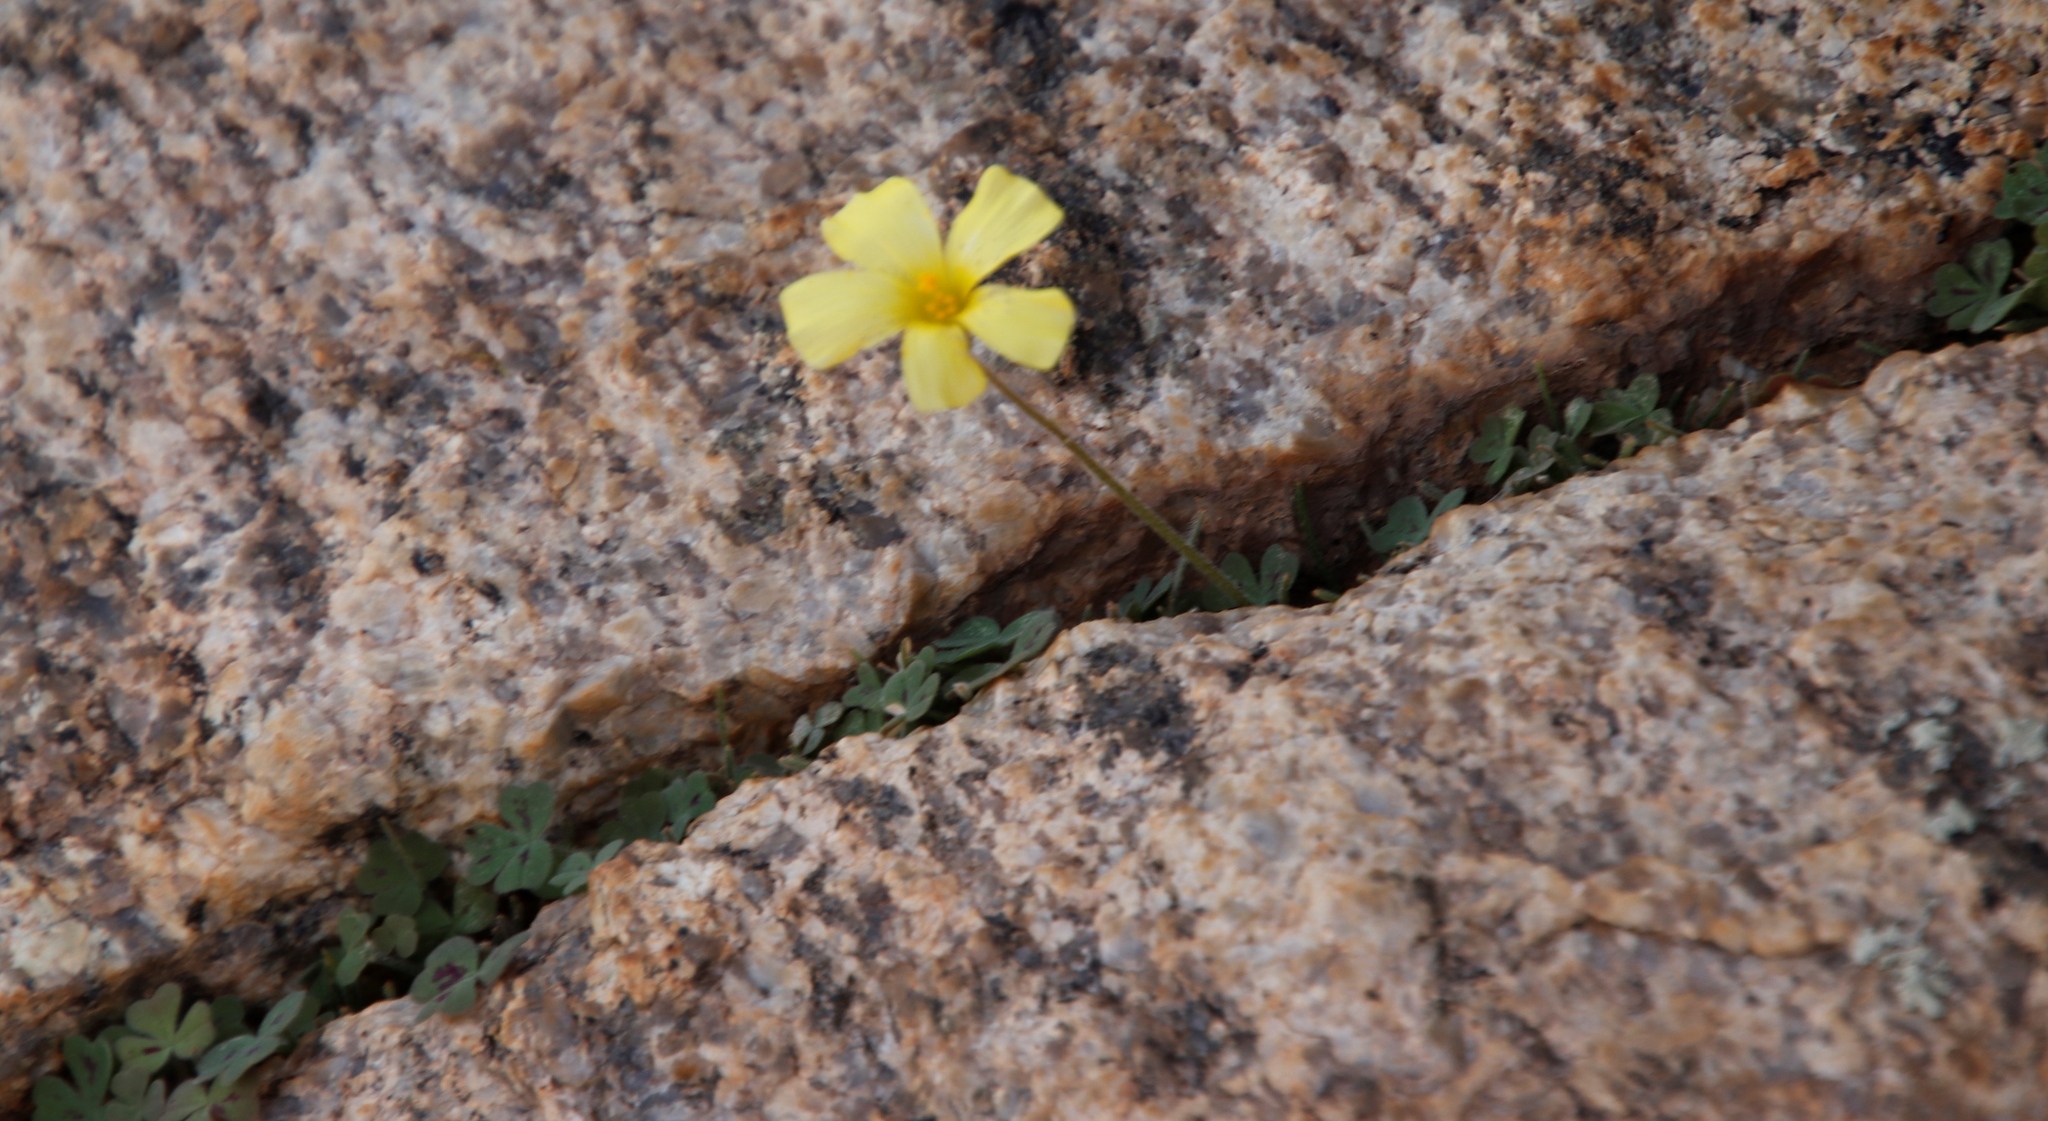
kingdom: Plantae
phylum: Tracheophyta
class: Magnoliopsida
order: Oxalidales
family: Oxalidaceae
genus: Oxalis
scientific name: Oxalis obtusa
